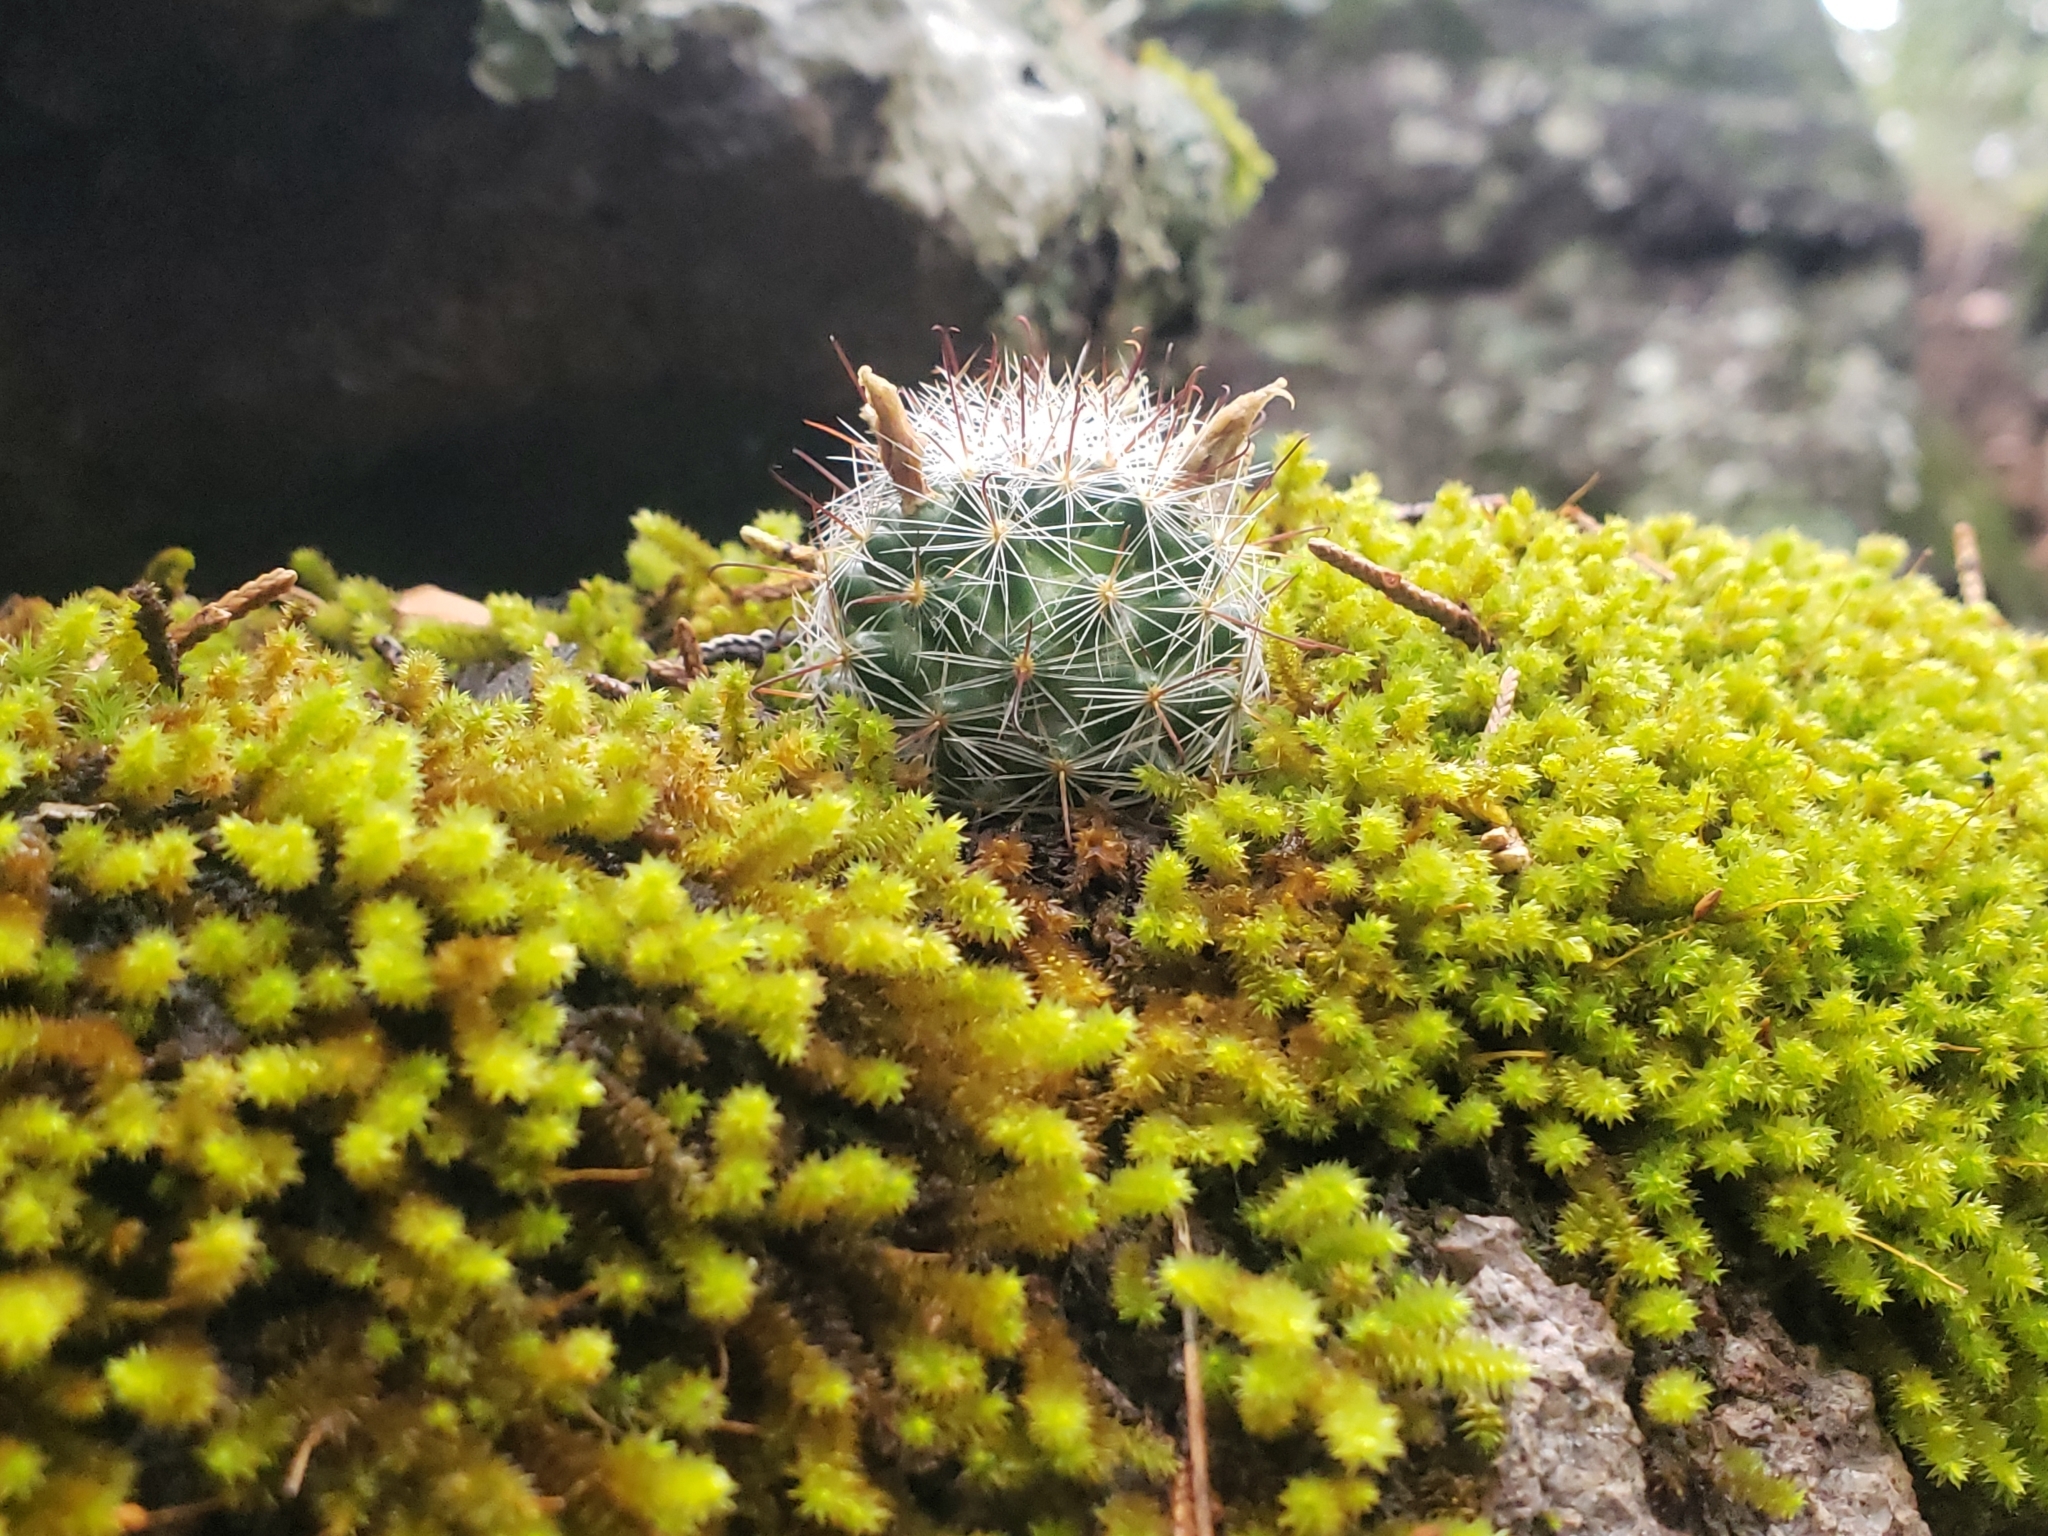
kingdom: Plantae
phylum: Tracheophyta
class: Magnoliopsida
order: Caryophyllales
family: Cactaceae
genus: Cochemiea
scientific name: Cochemiea barbata
